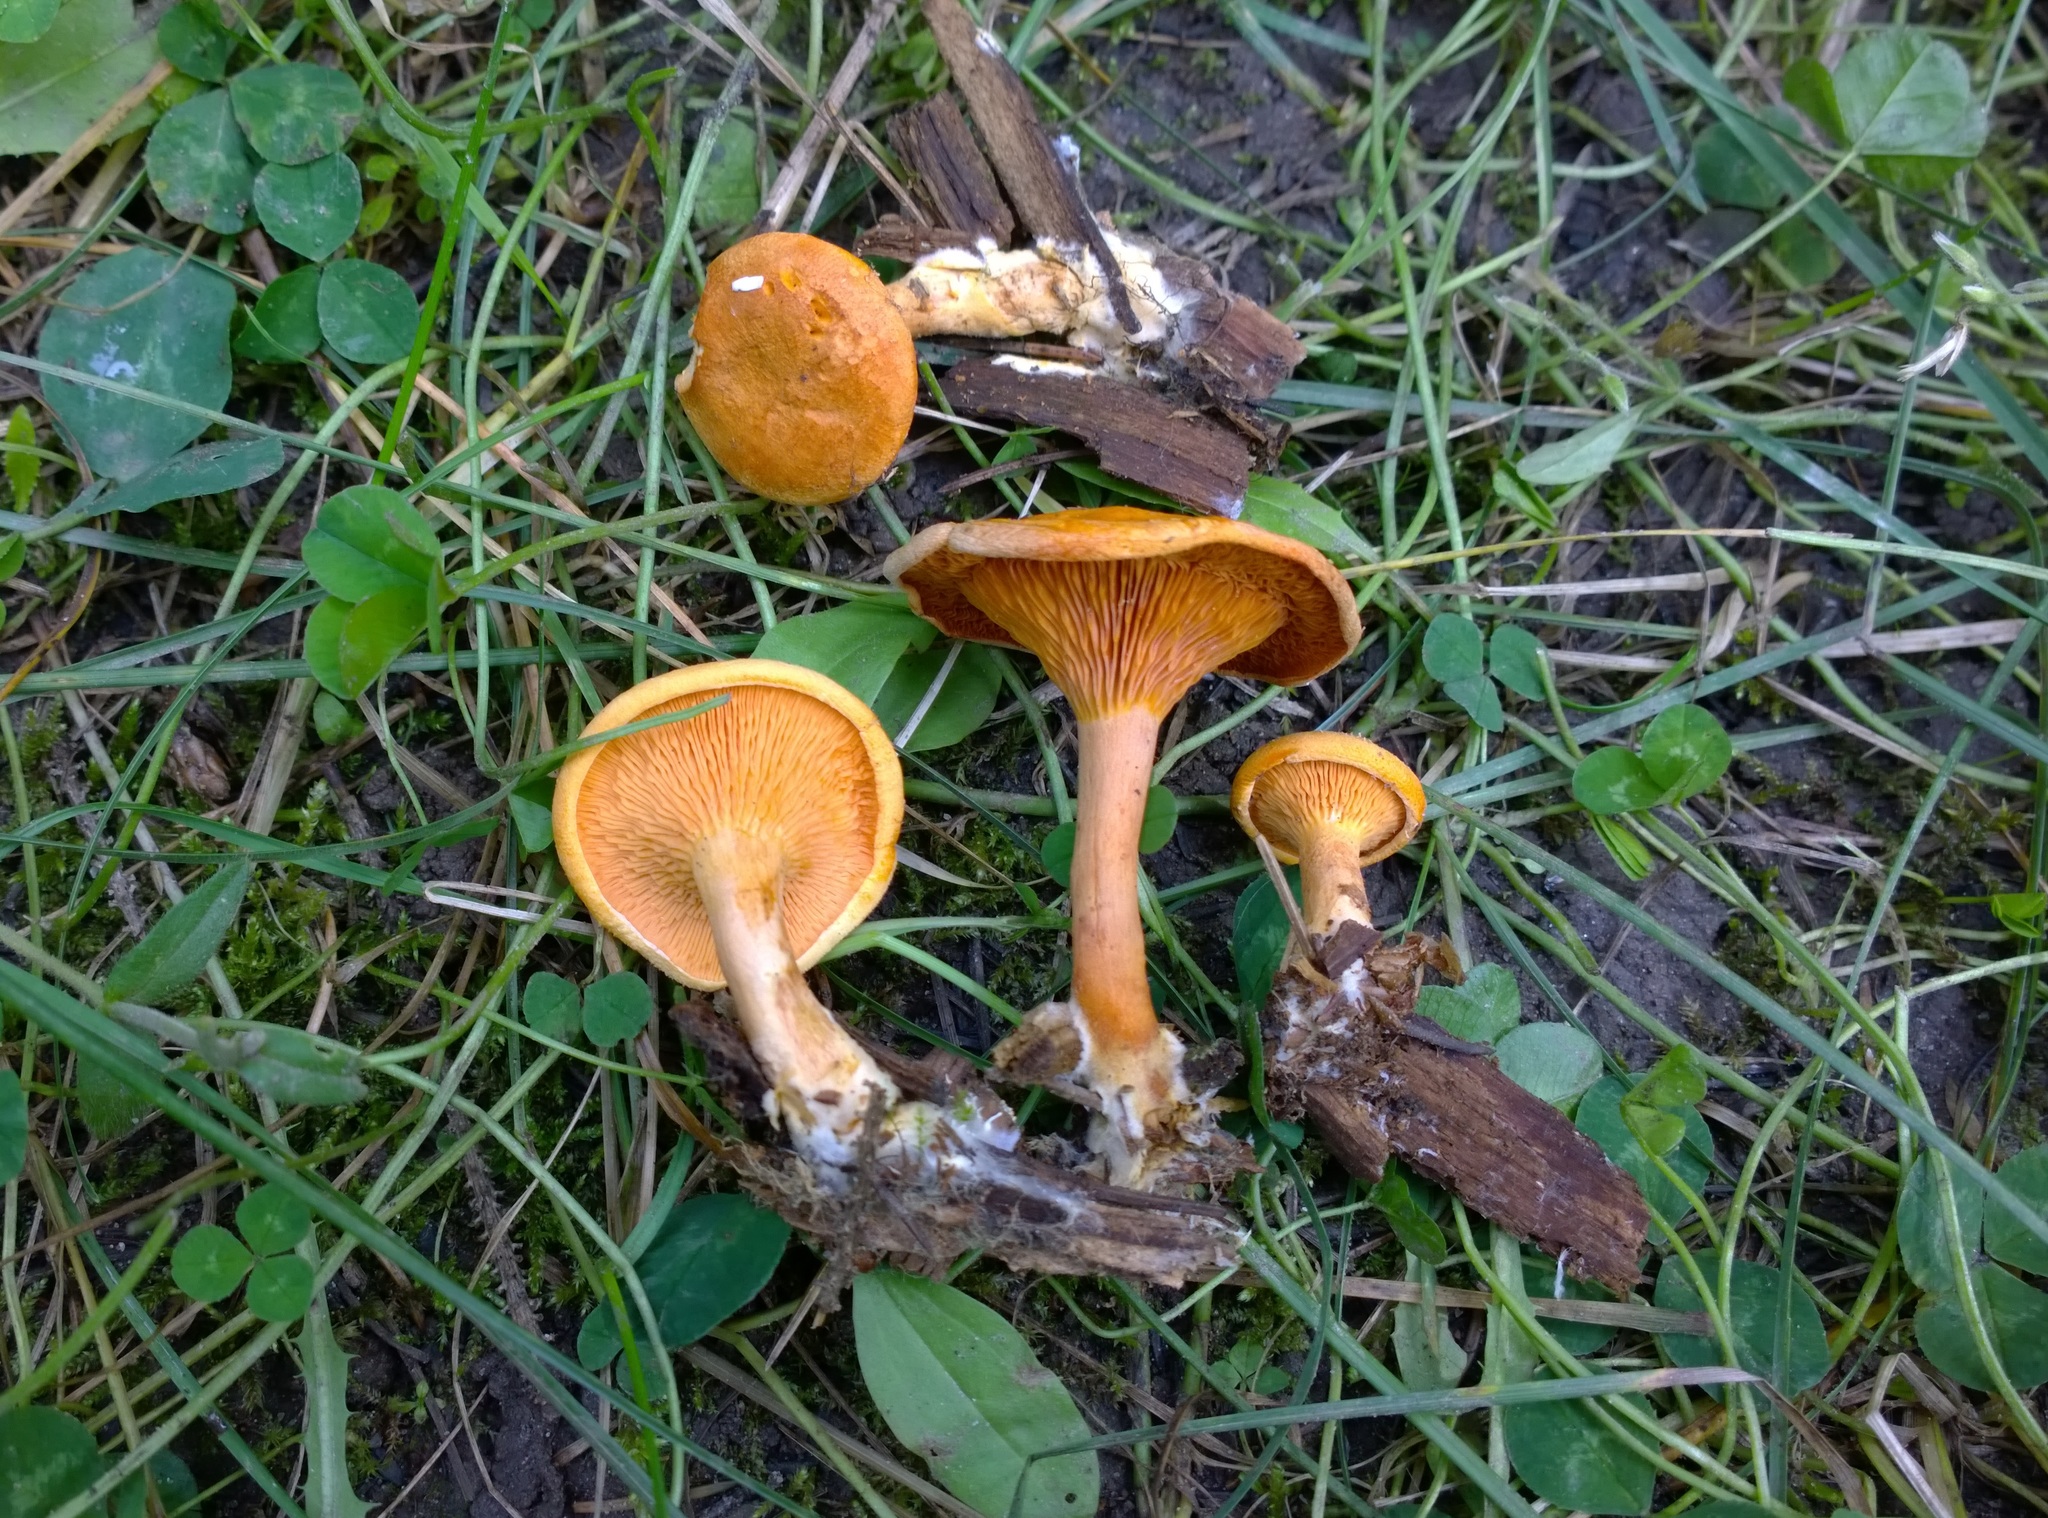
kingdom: Fungi
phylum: Basidiomycota
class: Agaricomycetes
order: Boletales
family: Hygrophoropsidaceae
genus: Hygrophoropsis
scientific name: Hygrophoropsis aurantiaca
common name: False chanterelle
